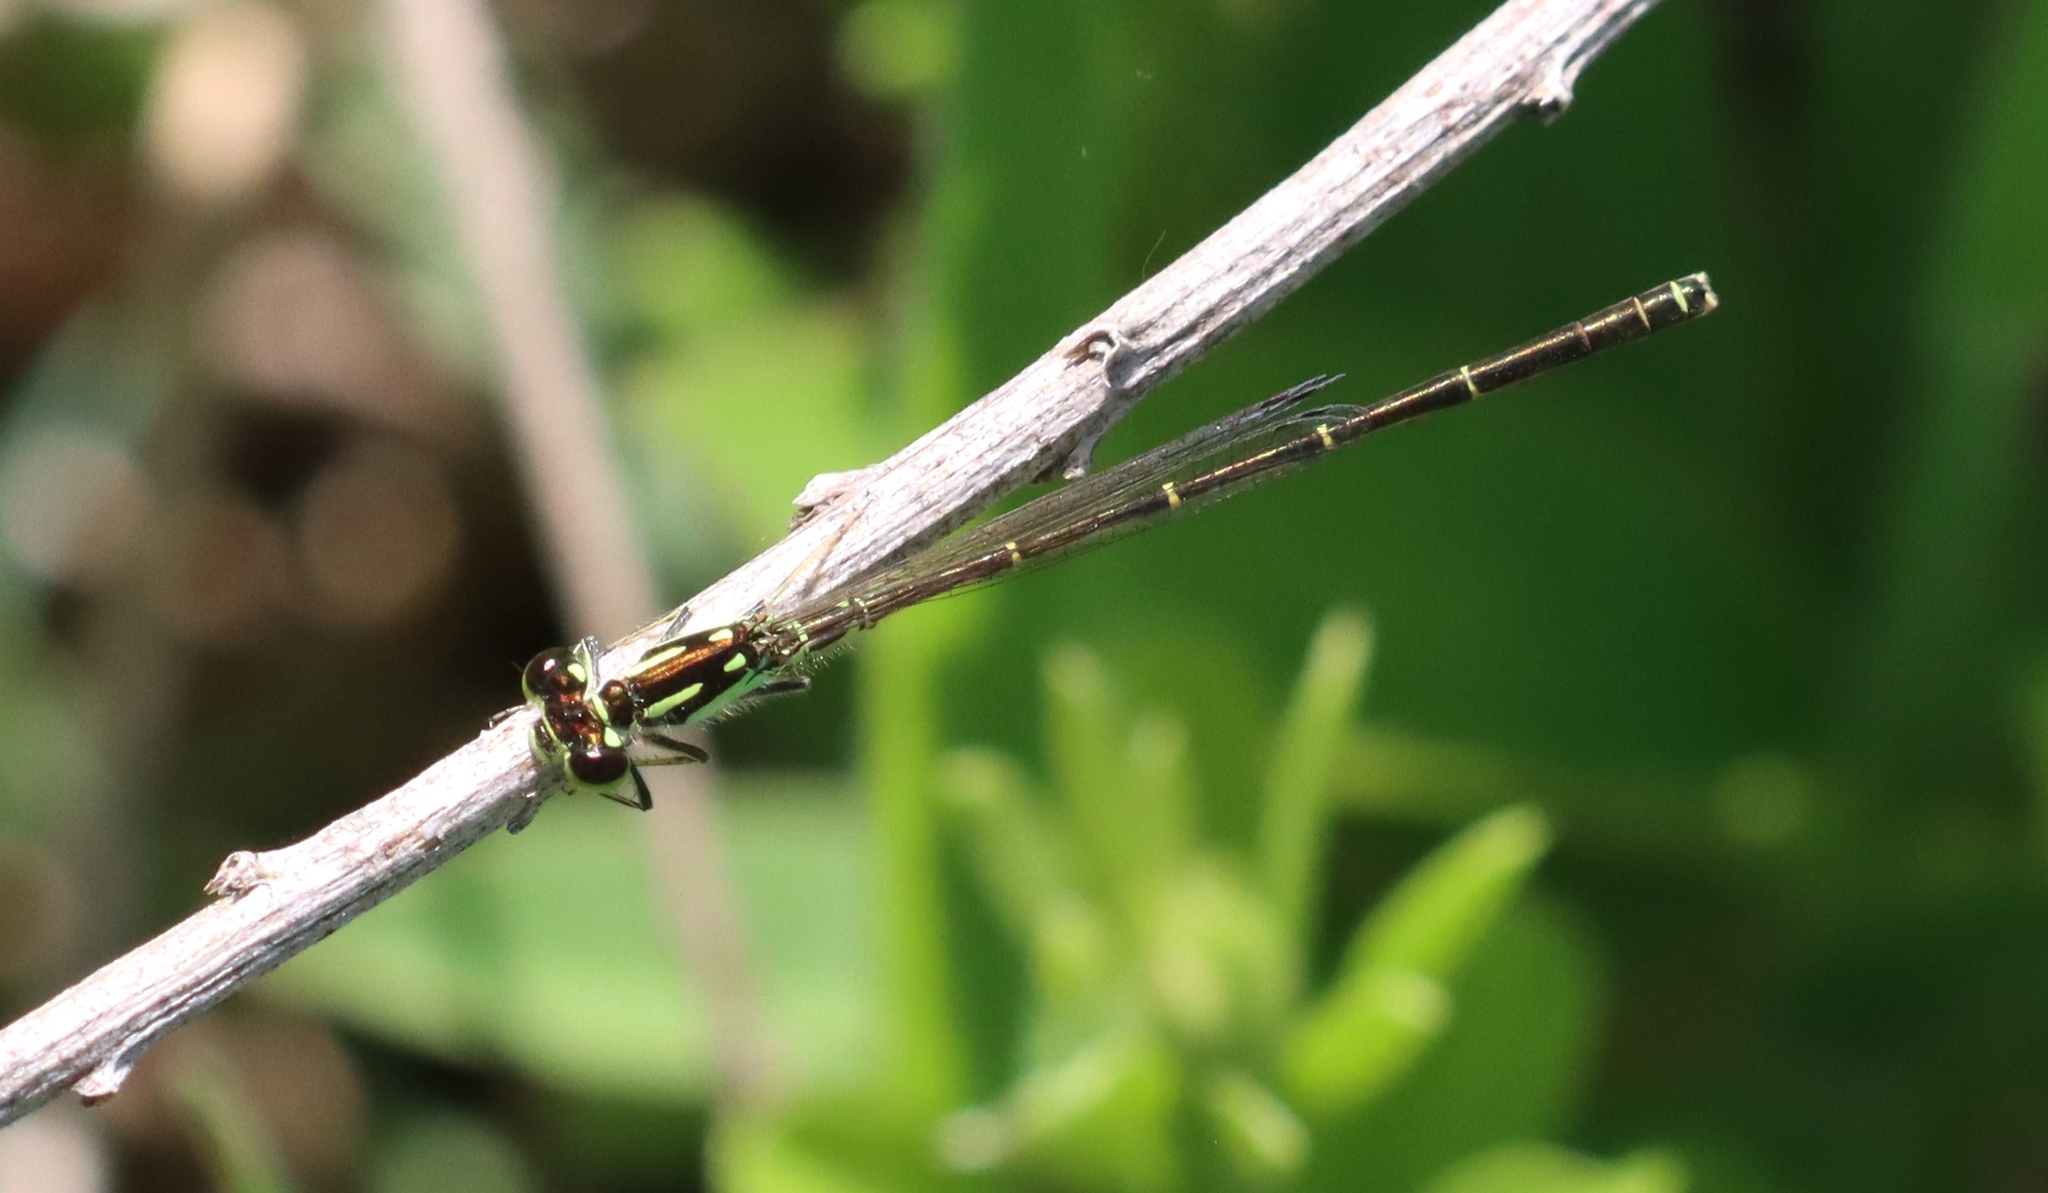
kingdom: Animalia
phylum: Arthropoda
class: Insecta
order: Odonata
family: Coenagrionidae
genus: Ischnura
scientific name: Ischnura posita
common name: Fragile forktail
